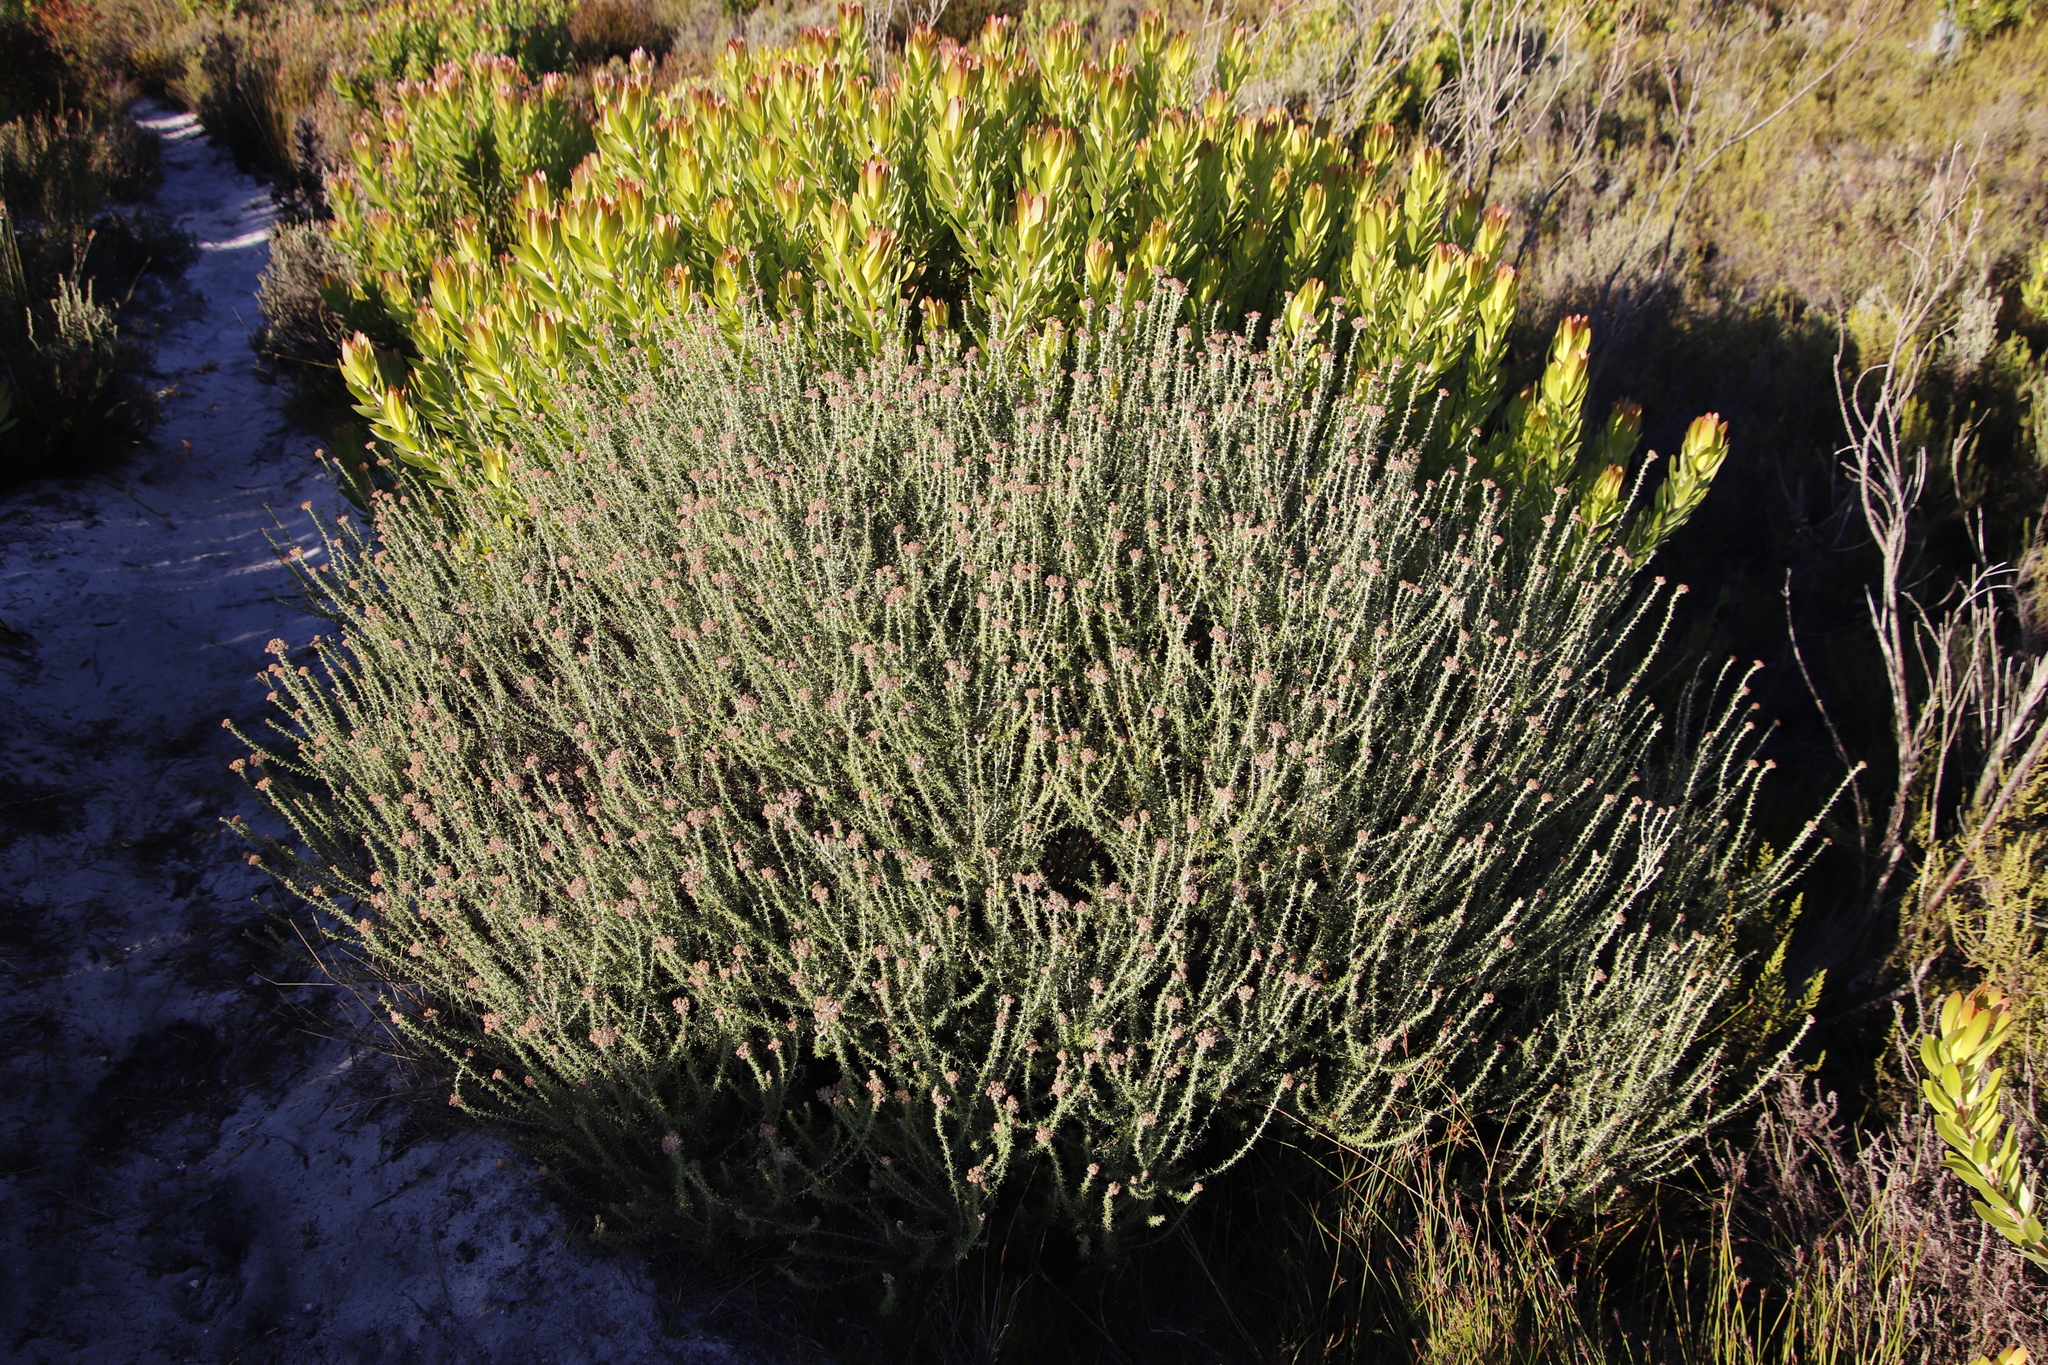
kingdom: Plantae
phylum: Tracheophyta
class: Magnoliopsida
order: Asterales
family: Asteraceae
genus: Metalasia
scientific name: Metalasia densa
